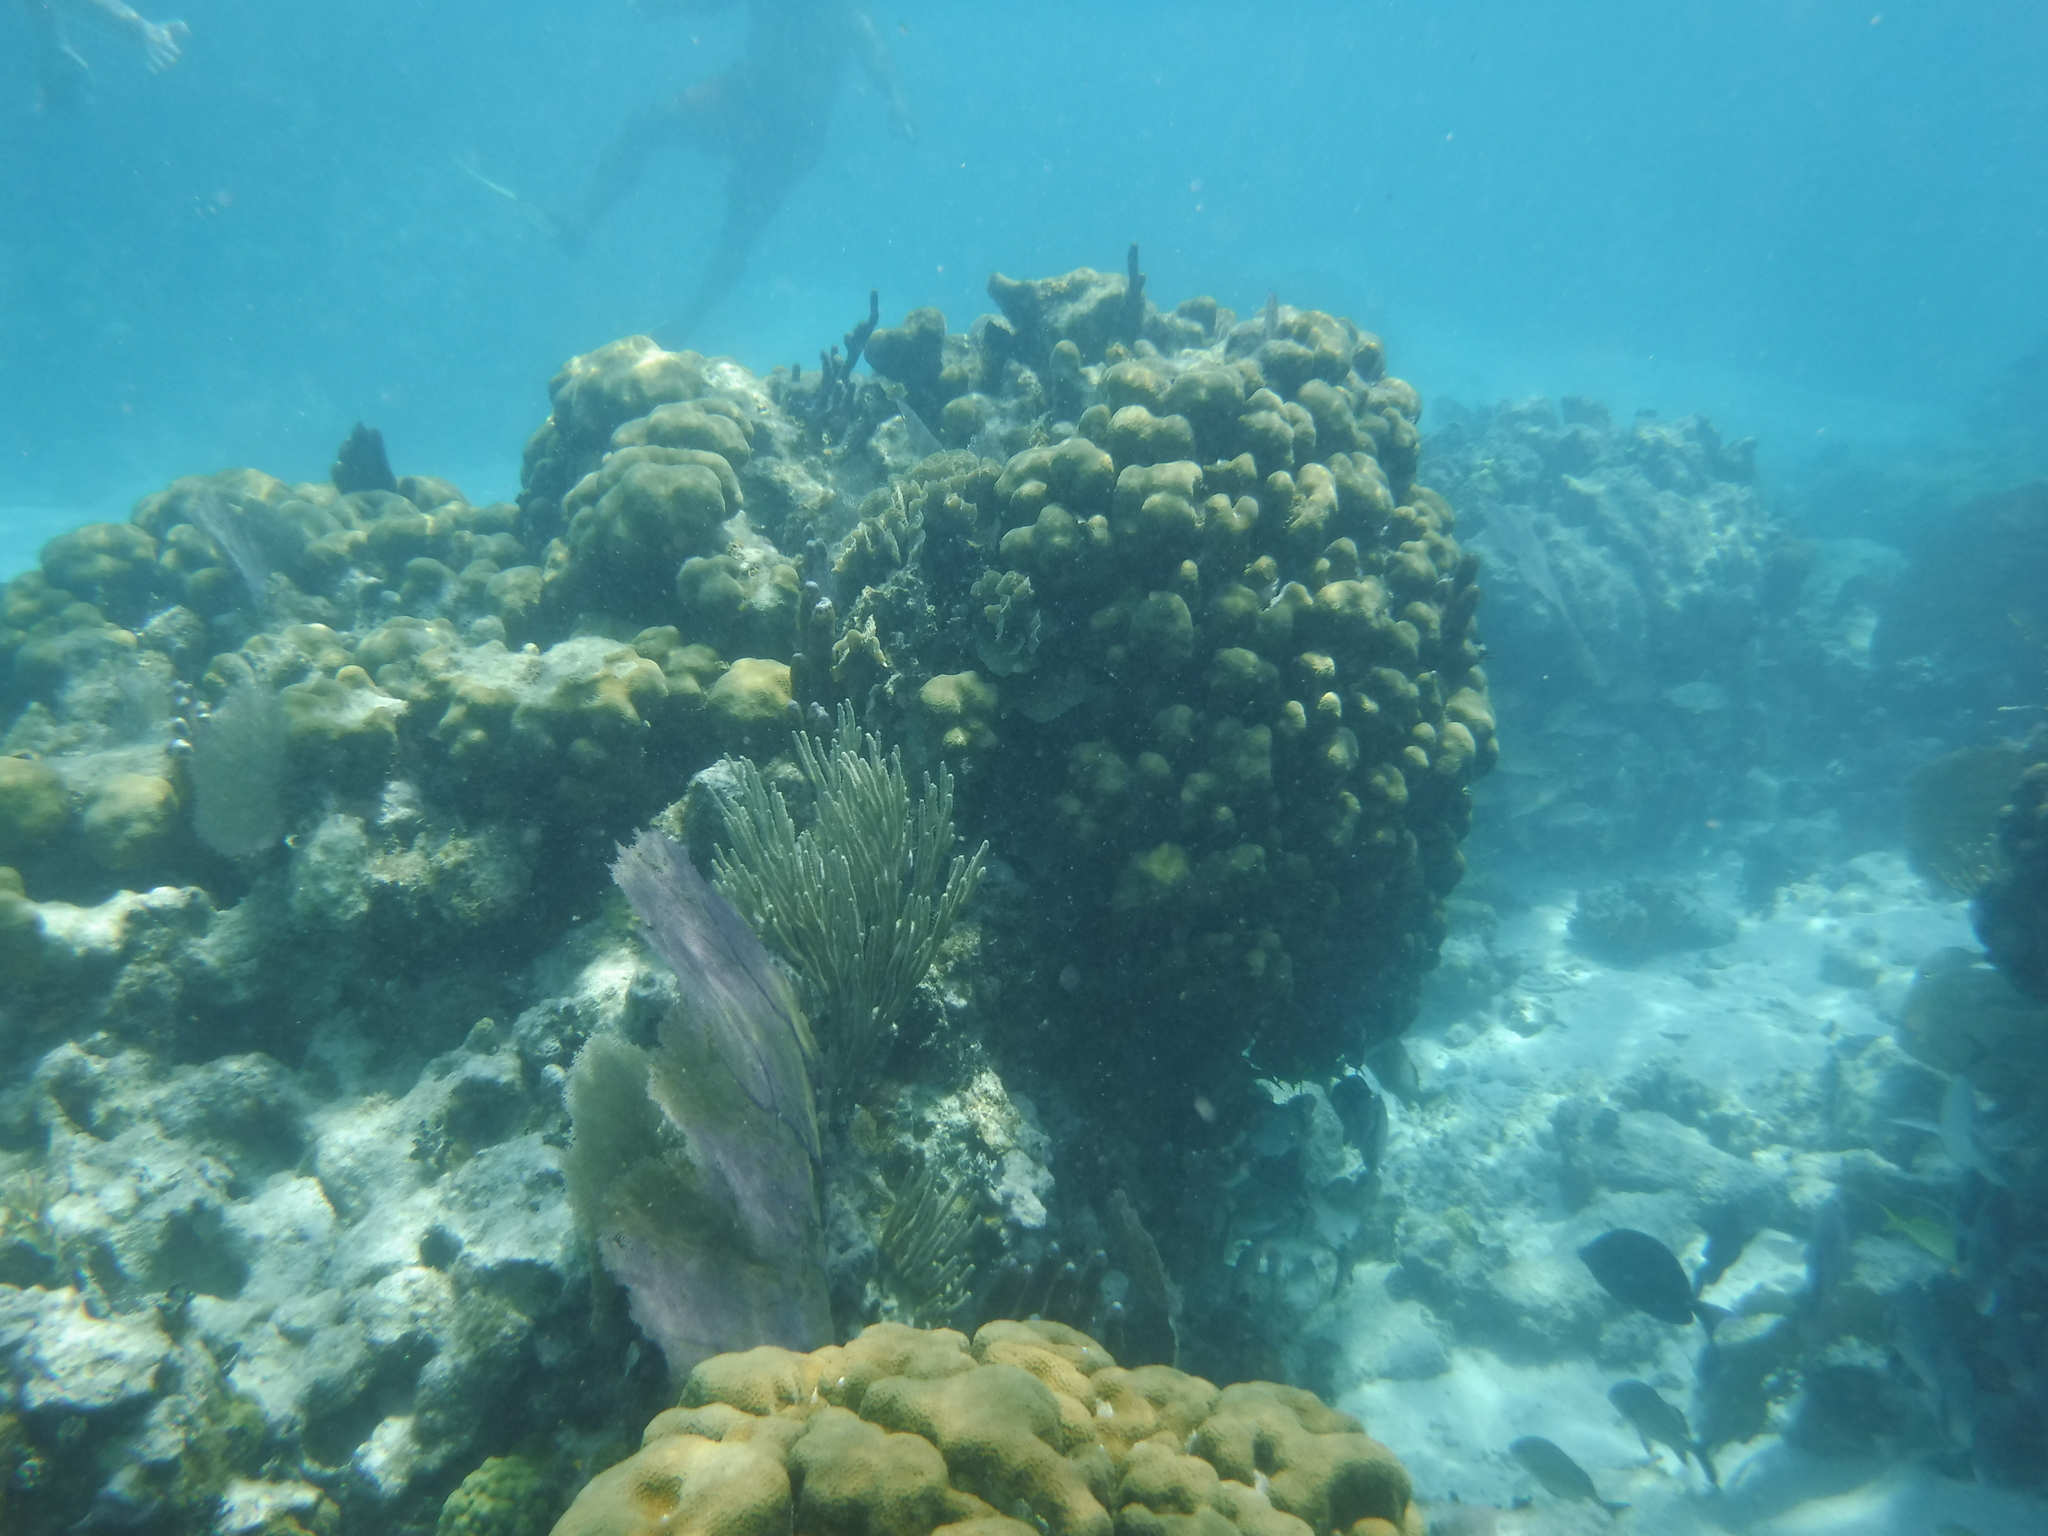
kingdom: Animalia
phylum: Cnidaria
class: Anthozoa
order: Malacalcyonacea
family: Gorgoniidae
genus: Gorgonia
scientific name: Gorgonia
